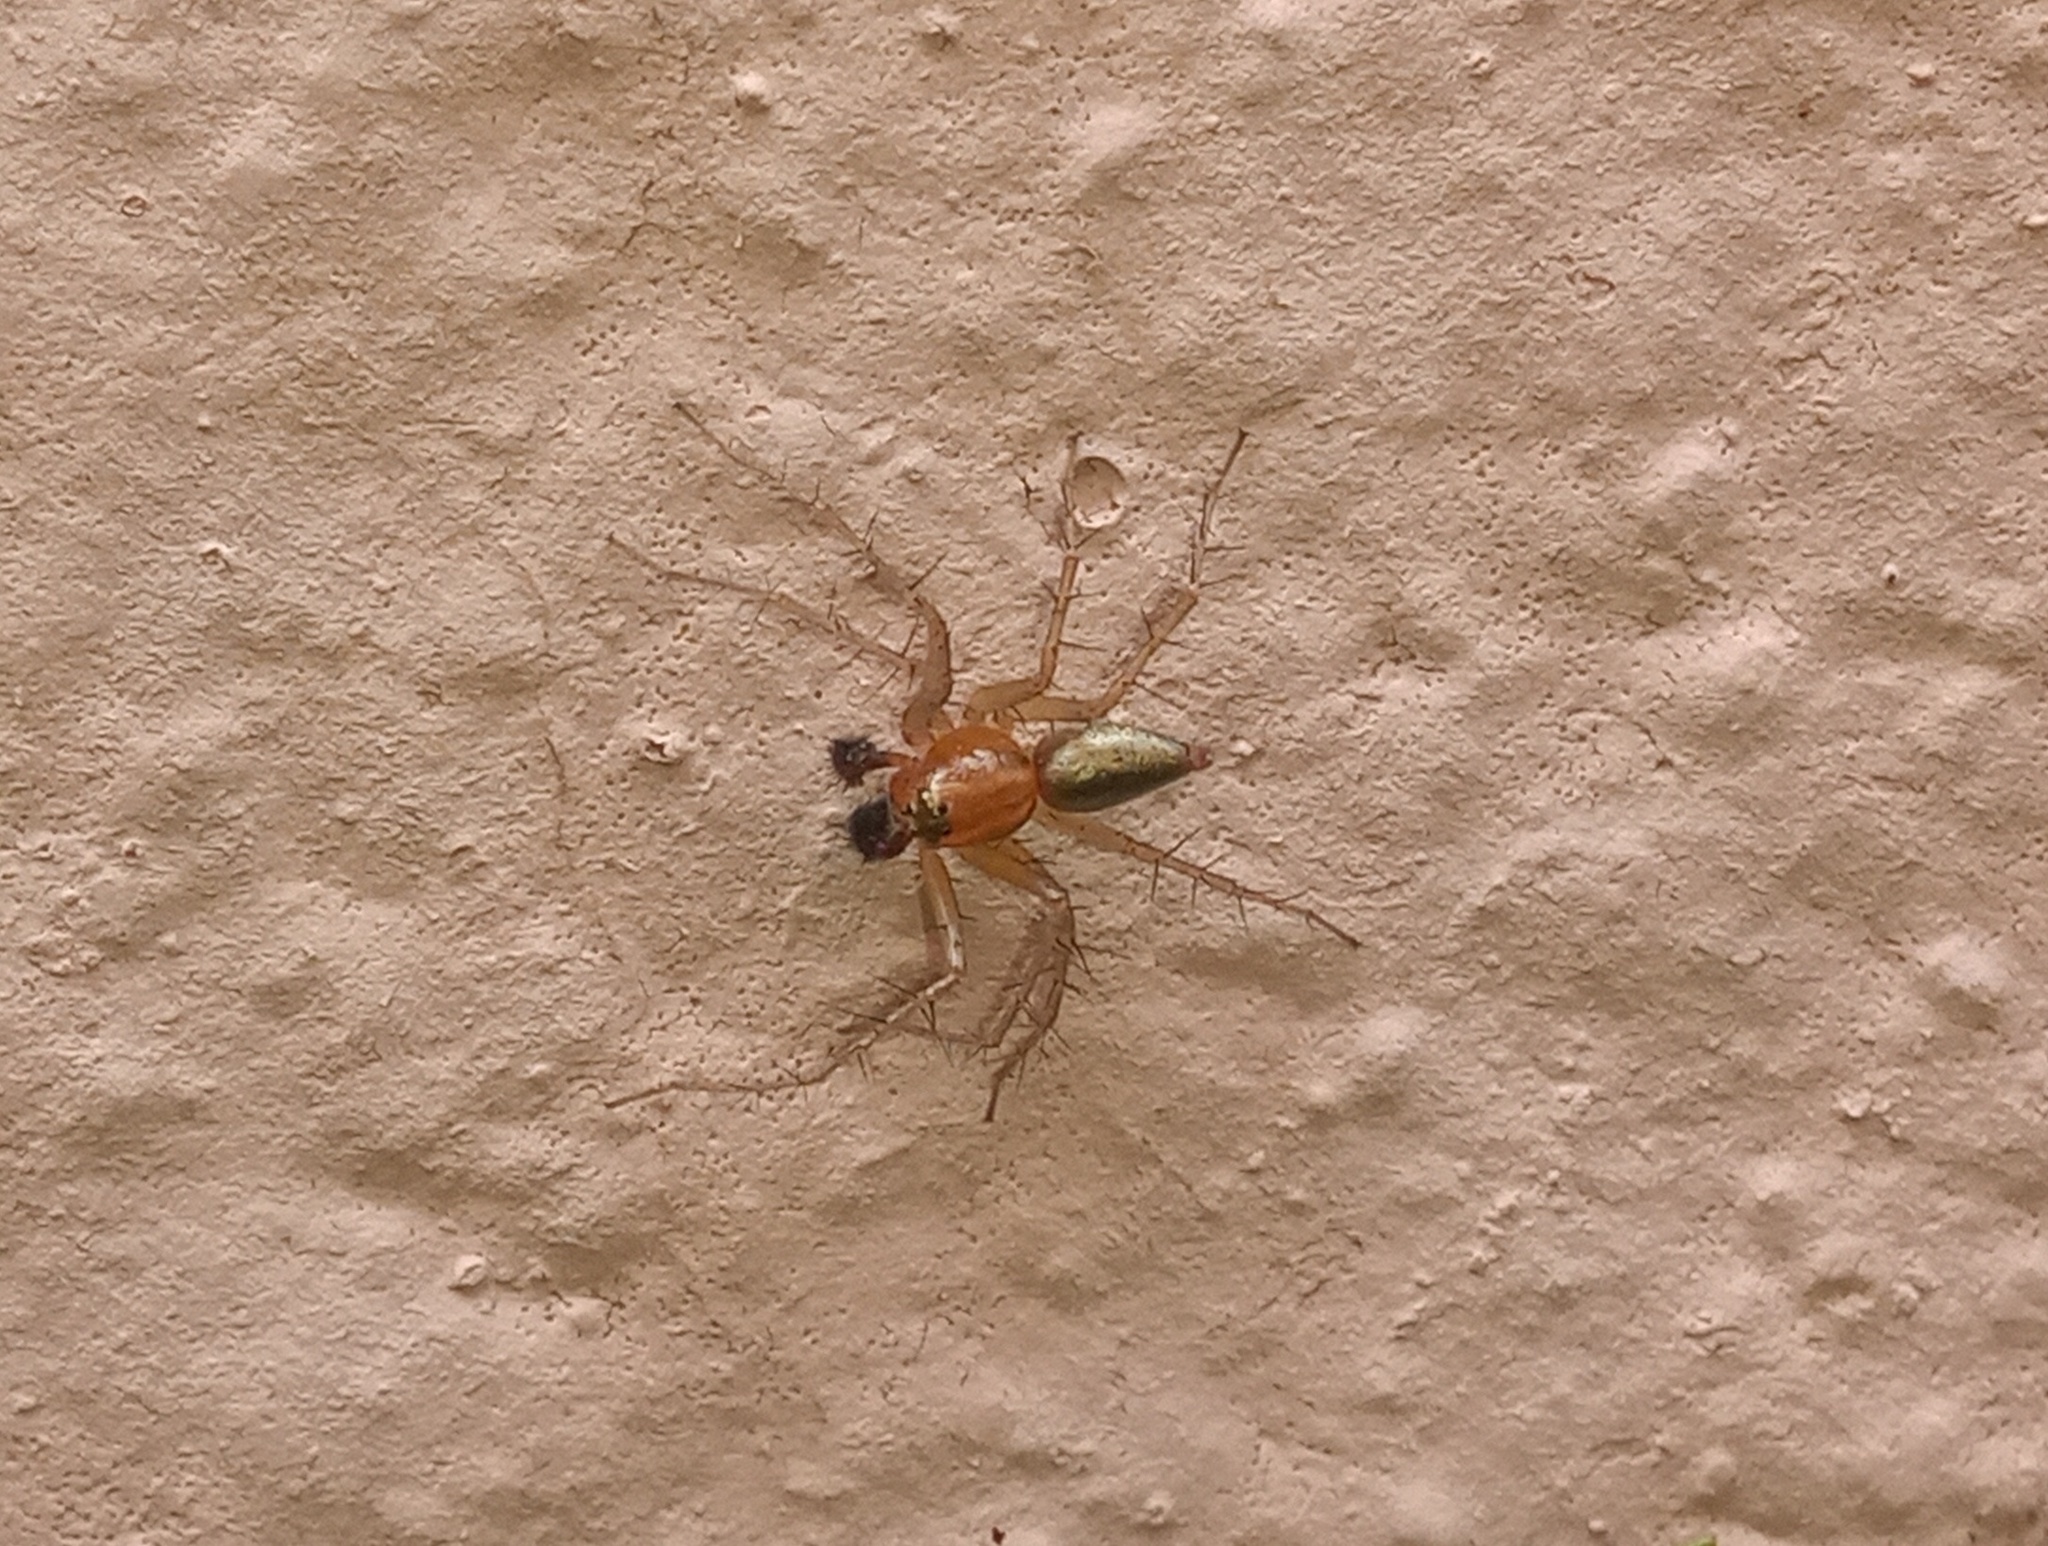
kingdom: Animalia
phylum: Arthropoda
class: Arachnida
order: Araneae
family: Oxyopidae
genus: Oxyopes
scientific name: Oxyopes salticus
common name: Lynx spiders
